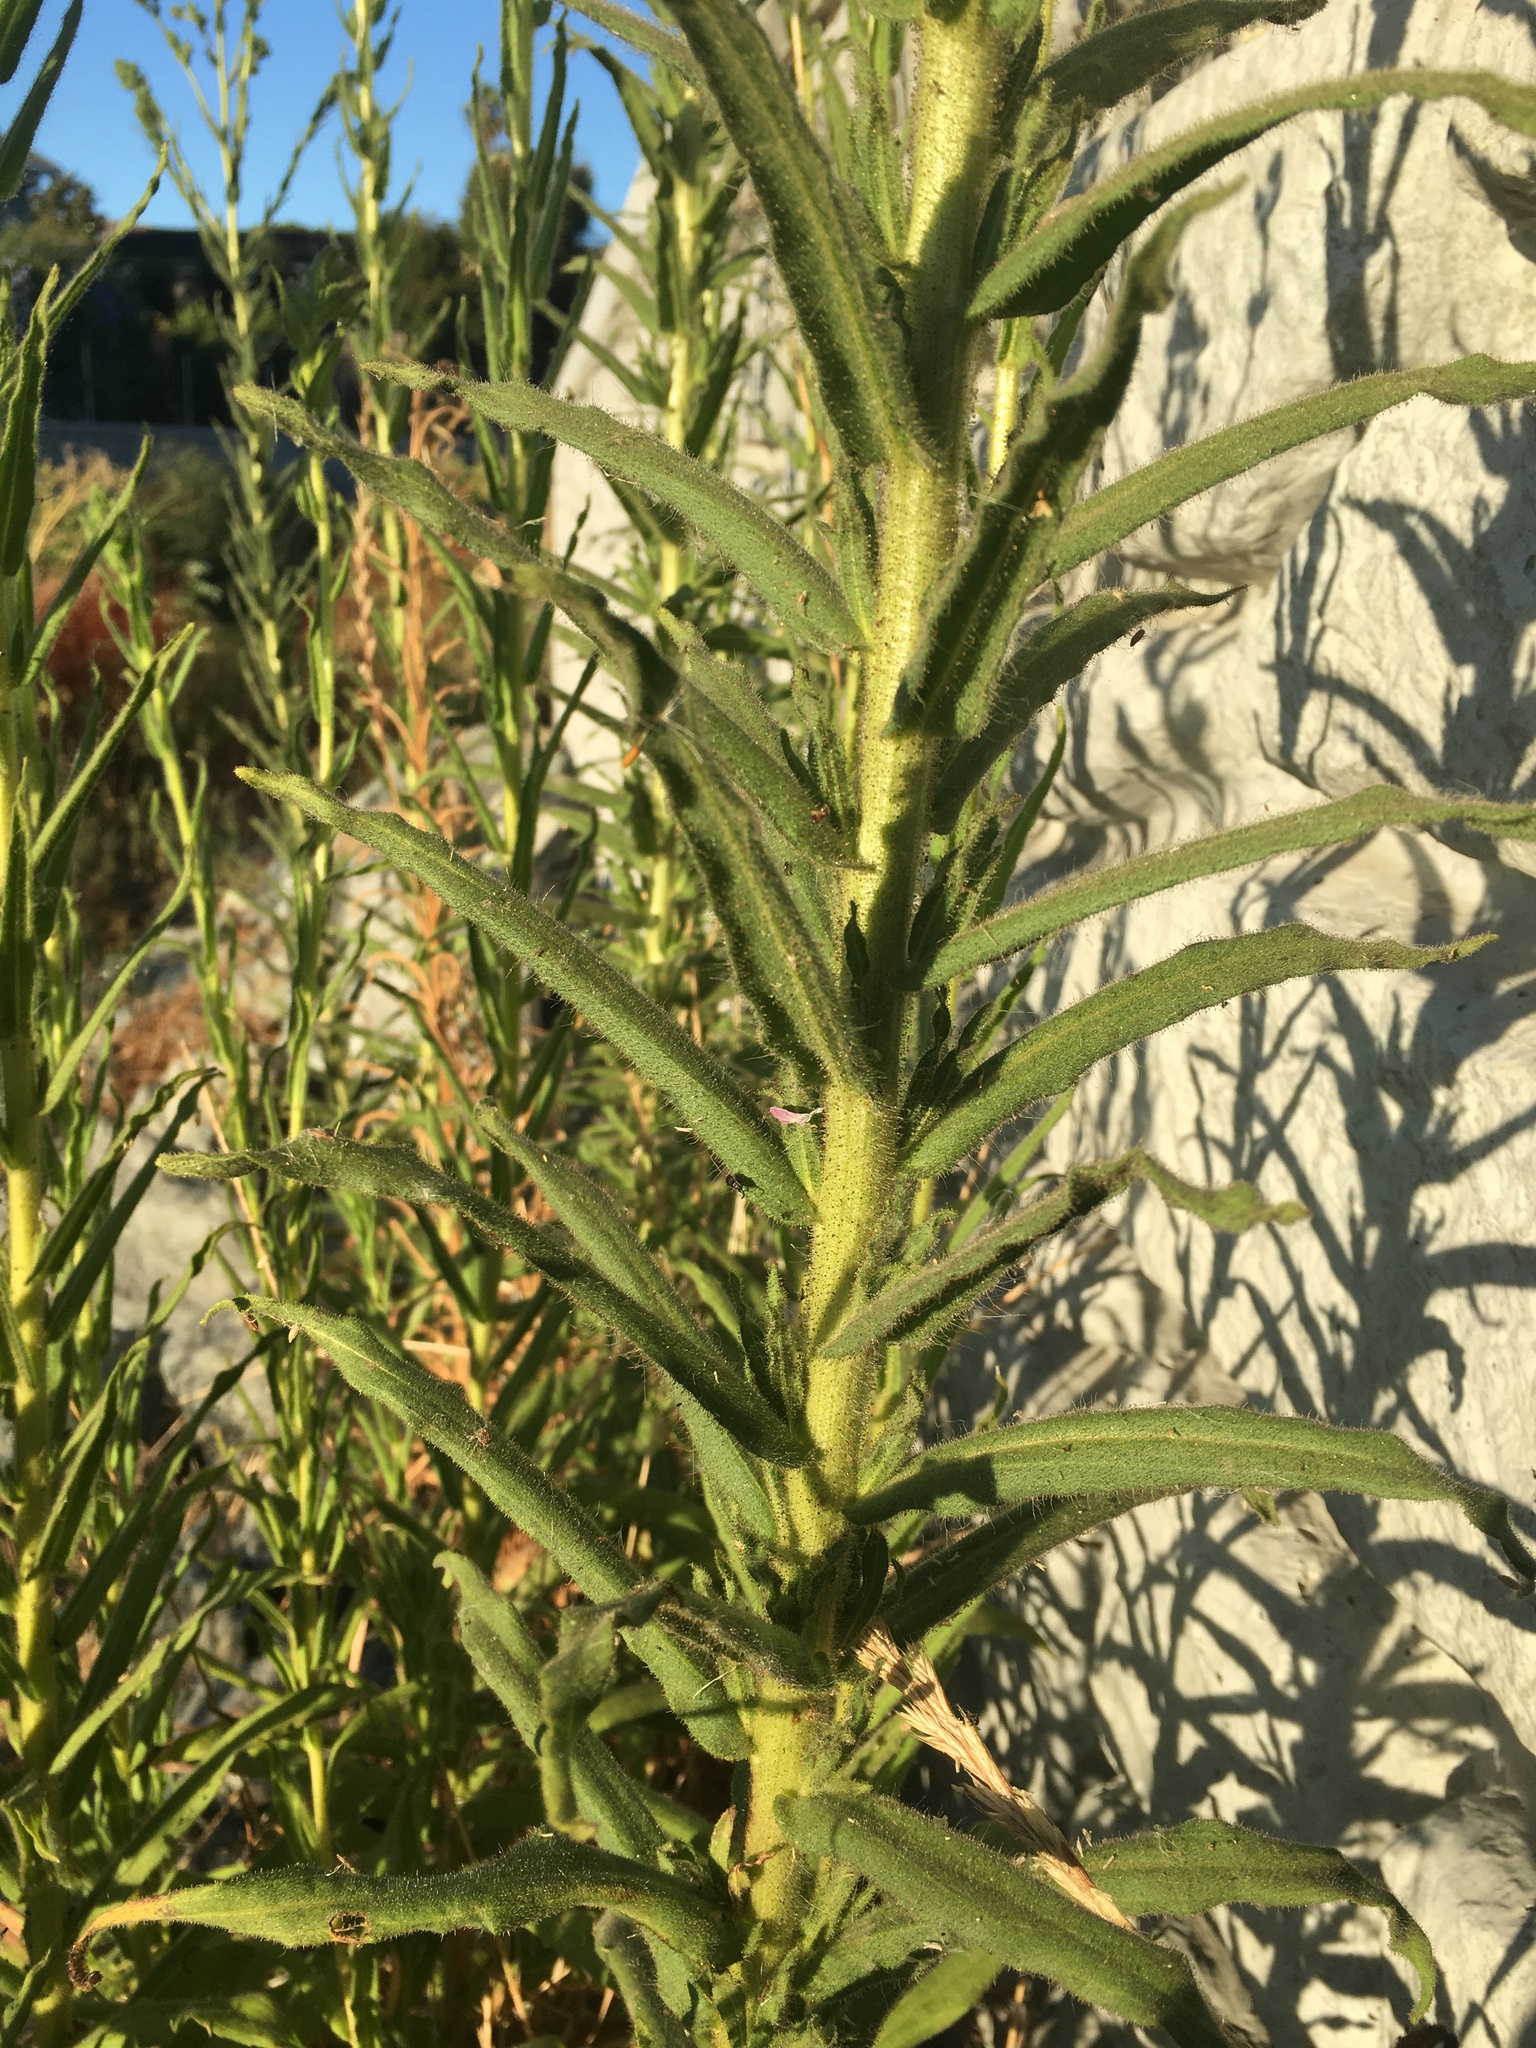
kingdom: Plantae
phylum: Tracheophyta
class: Magnoliopsida
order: Asterales
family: Asteraceae
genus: Madia
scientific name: Madia sativa
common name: Coast tarweed
